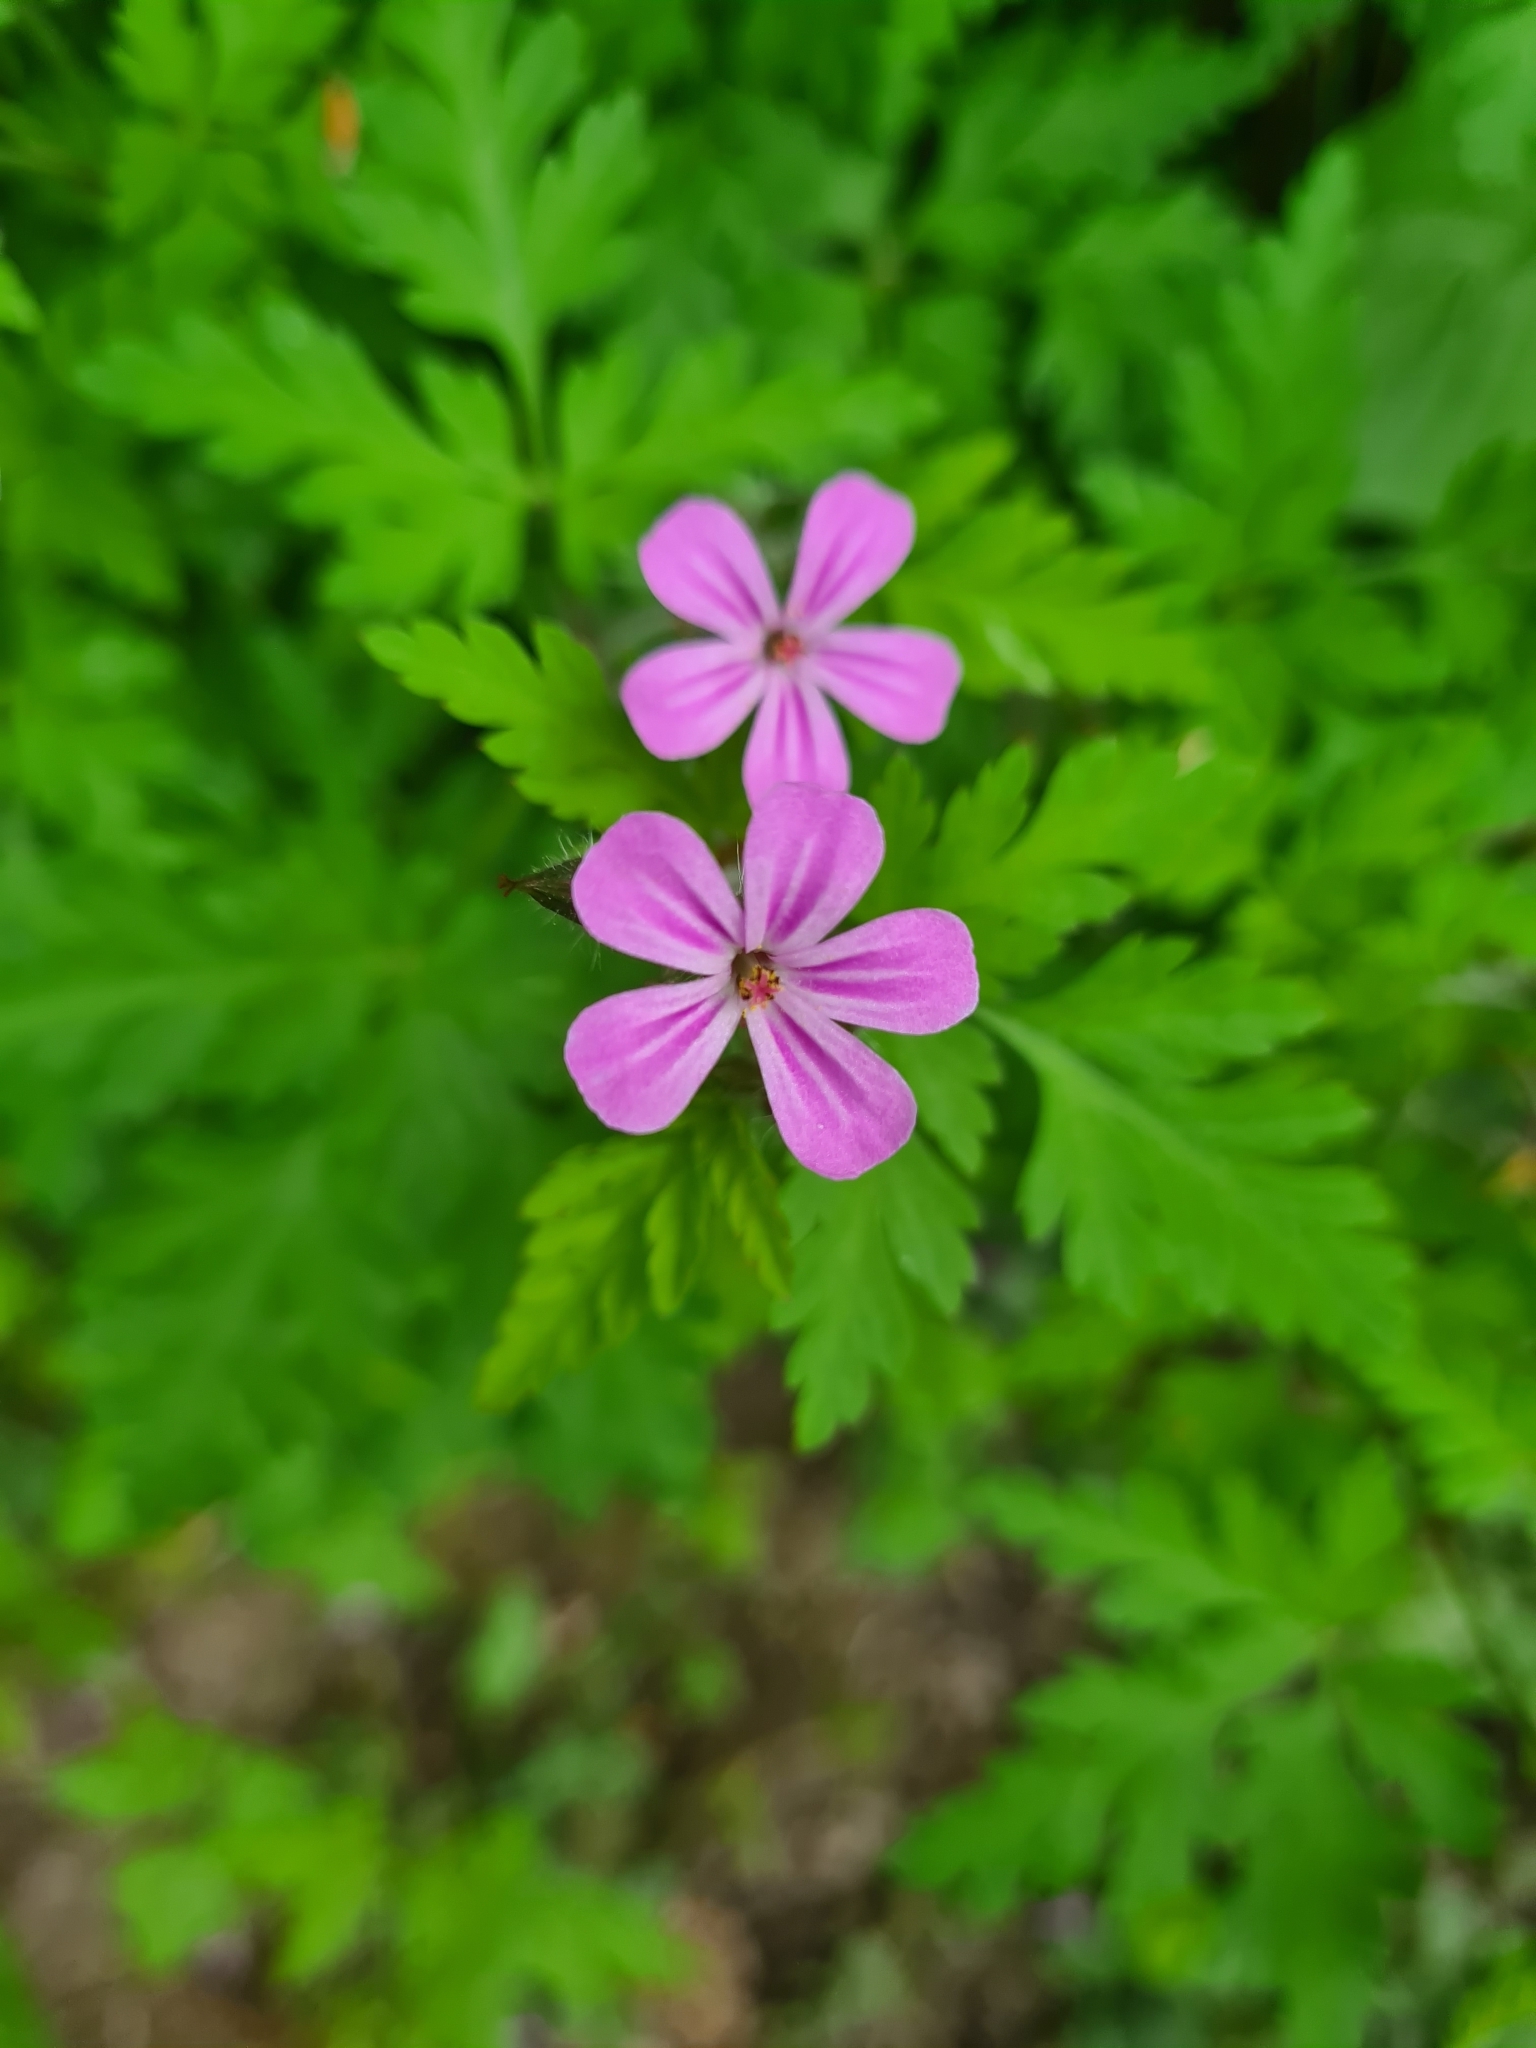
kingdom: Plantae
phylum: Tracheophyta
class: Magnoliopsida
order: Geraniales
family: Geraniaceae
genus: Geranium
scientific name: Geranium robertianum
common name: Herb-robert
